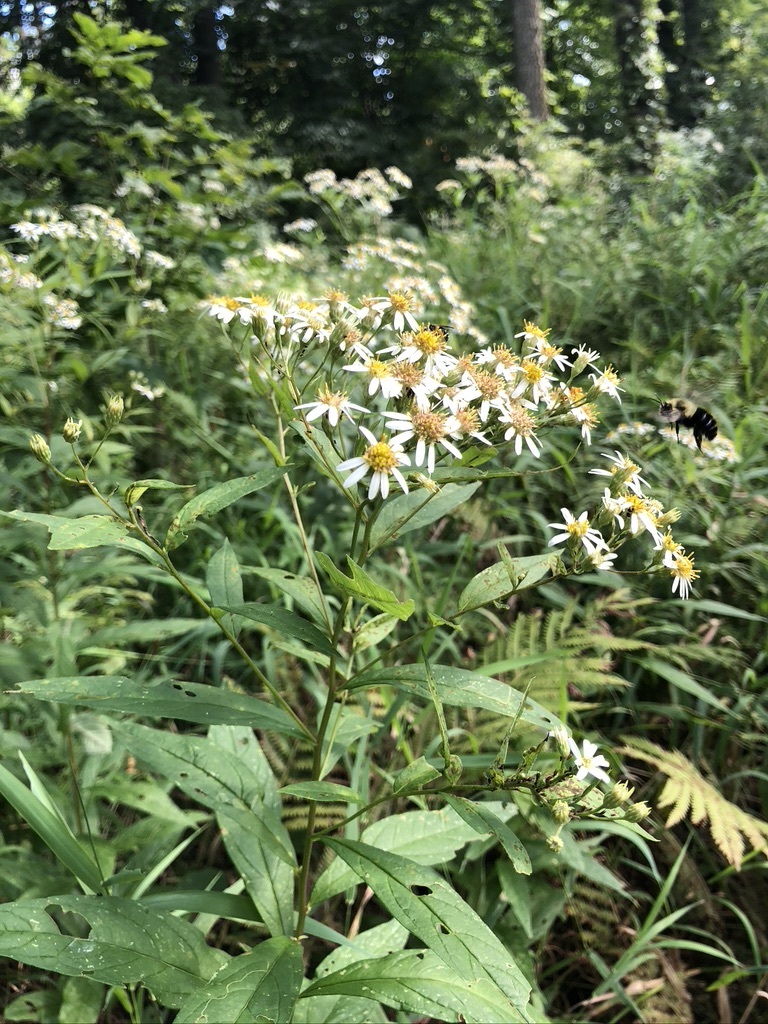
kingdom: Plantae
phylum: Tracheophyta
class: Magnoliopsida
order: Asterales
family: Asteraceae
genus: Doellingeria
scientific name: Doellingeria umbellata
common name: Flat-top white aster
